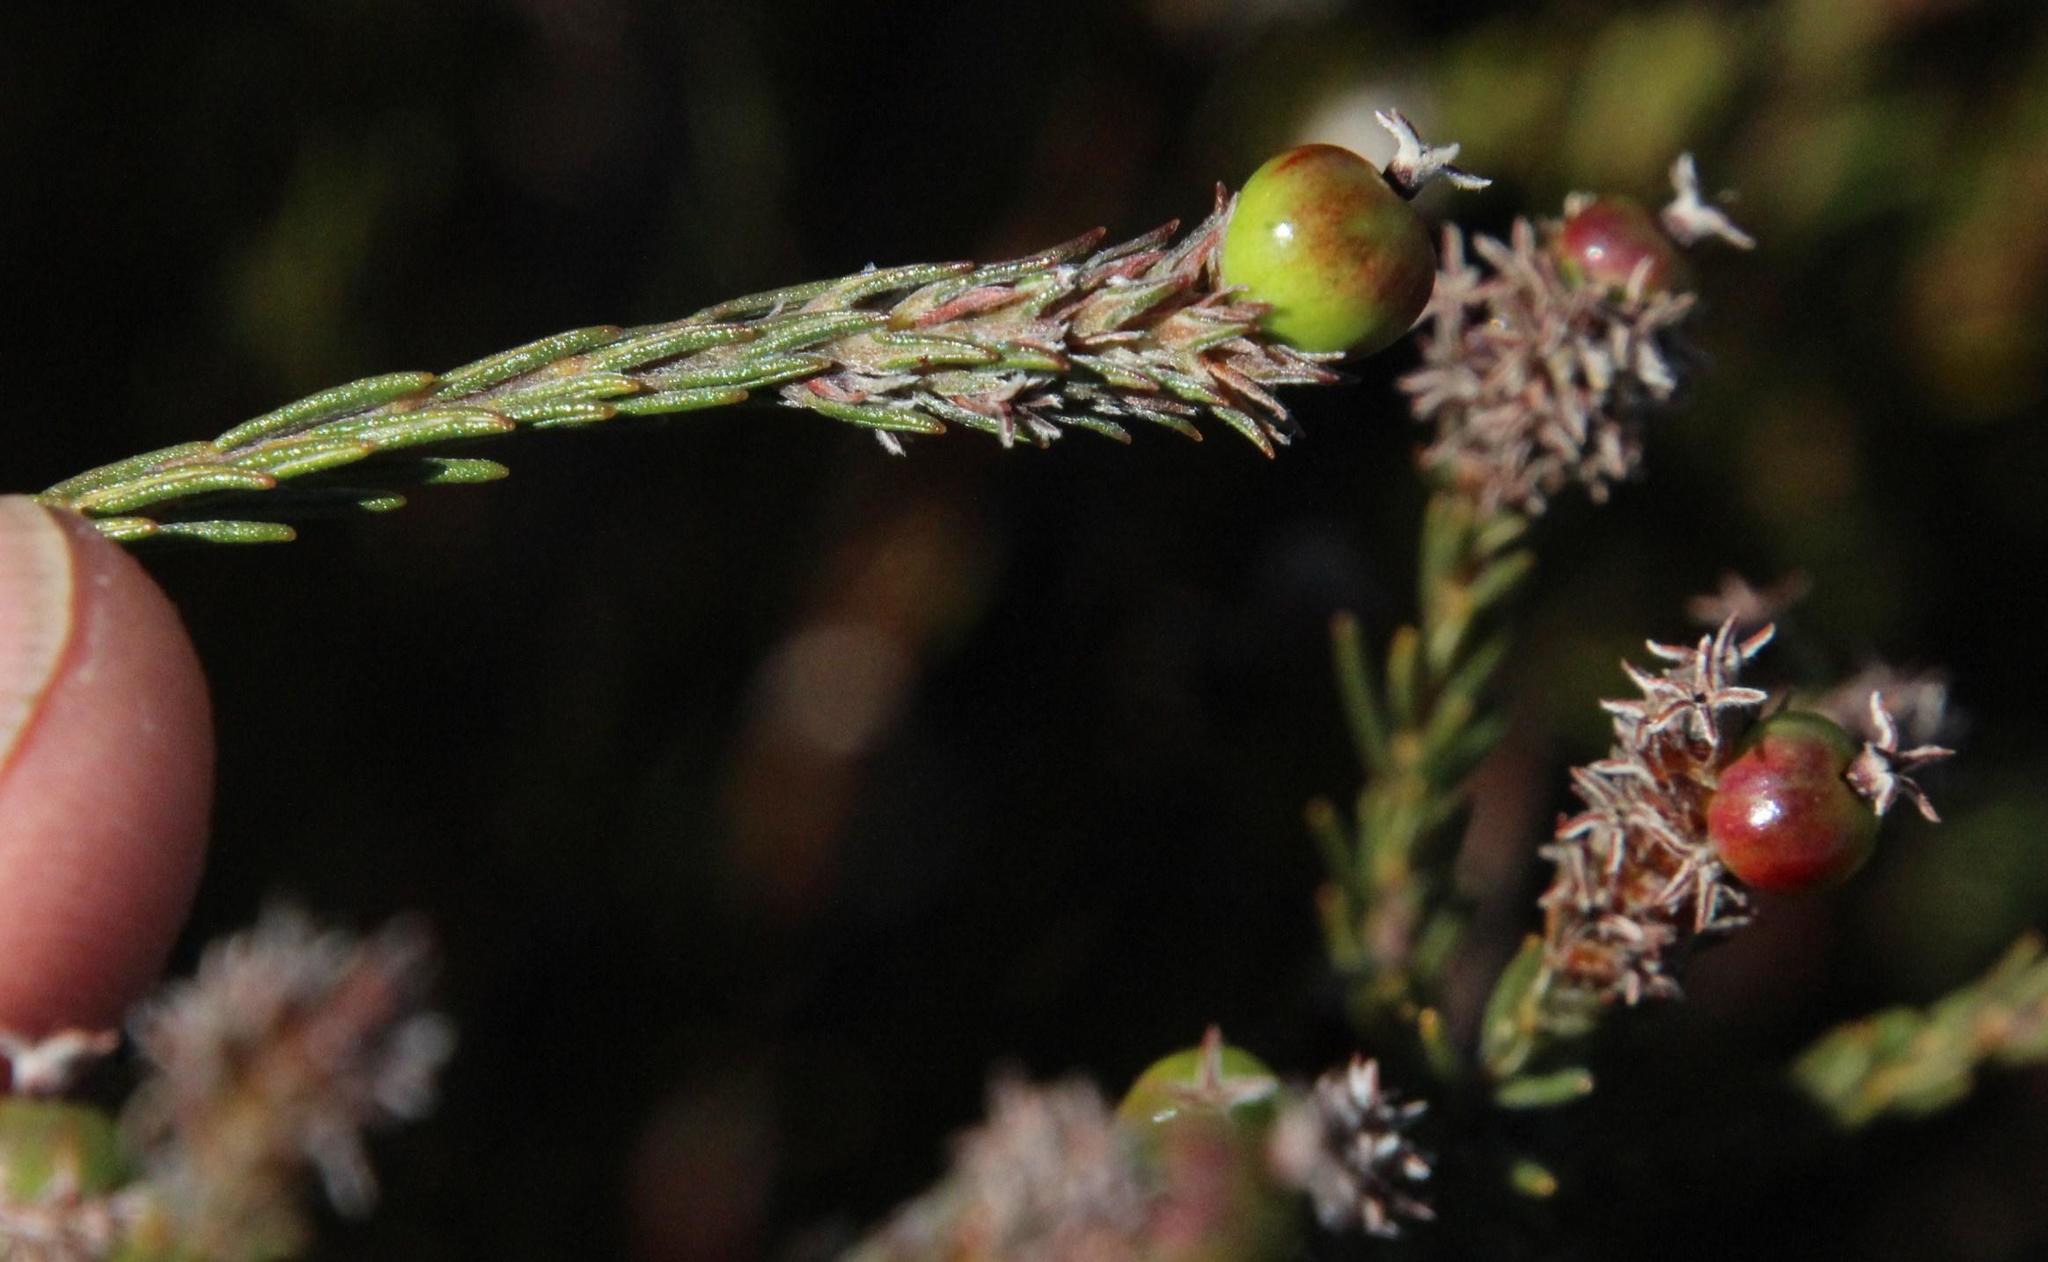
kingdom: Plantae
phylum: Tracheophyta
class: Magnoliopsida
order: Rosales
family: Rhamnaceae
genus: Phylica
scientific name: Phylica agathosmoides
